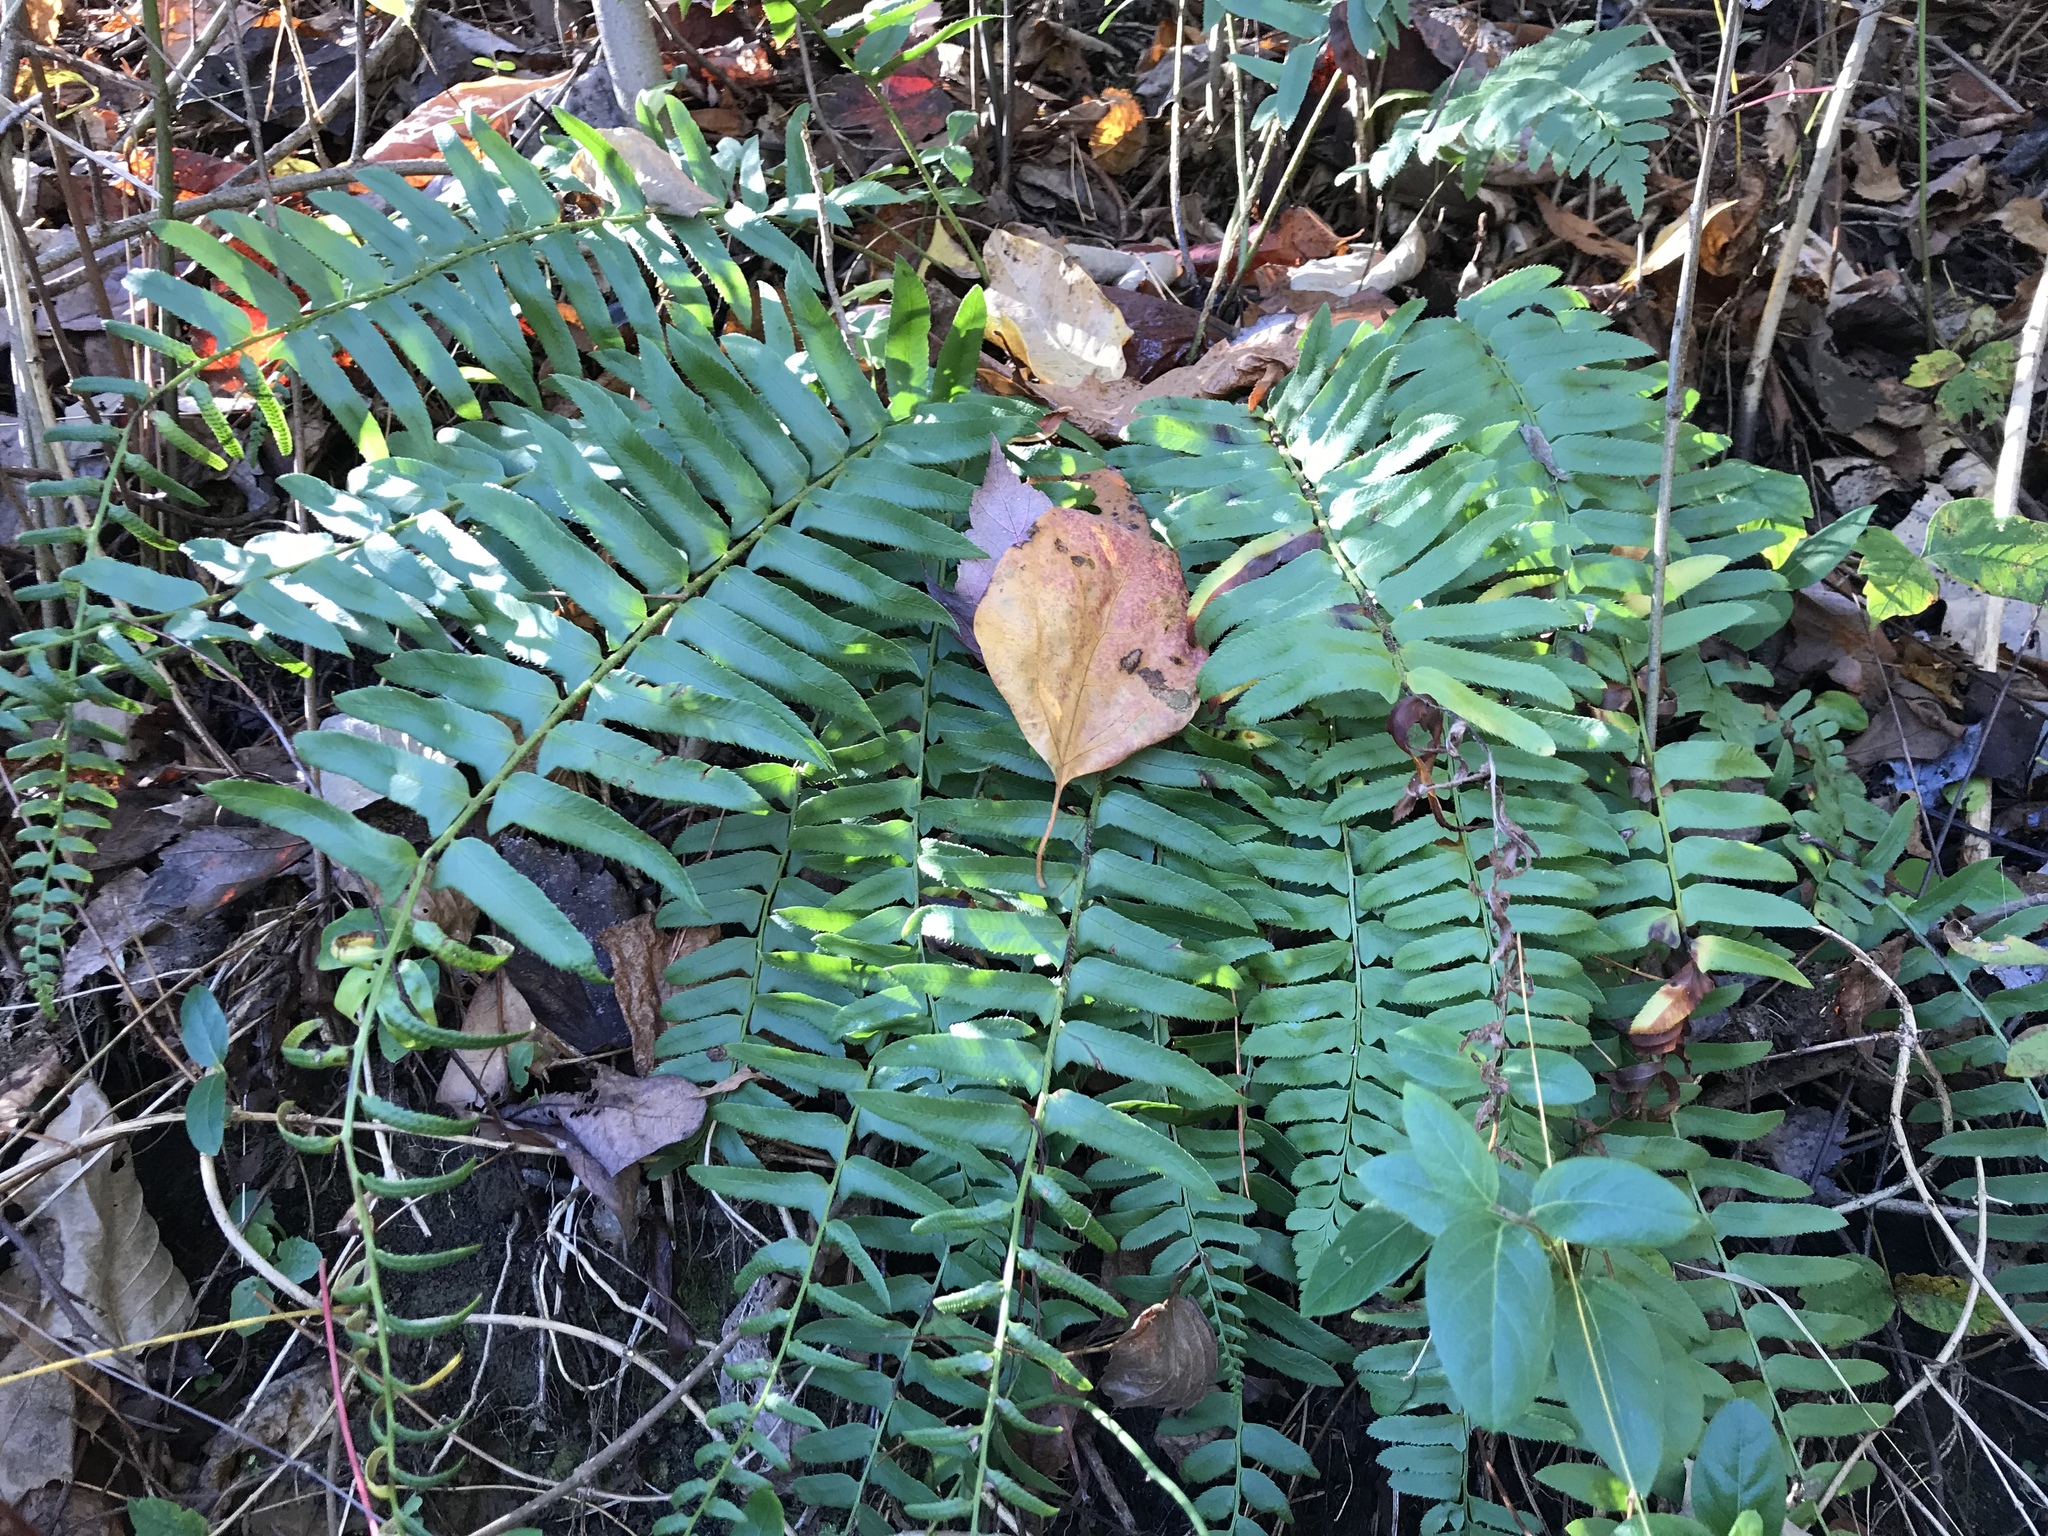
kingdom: Plantae
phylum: Tracheophyta
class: Polypodiopsida
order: Polypodiales
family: Dryopteridaceae
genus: Polystichum
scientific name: Polystichum acrostichoides
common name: Christmas fern
